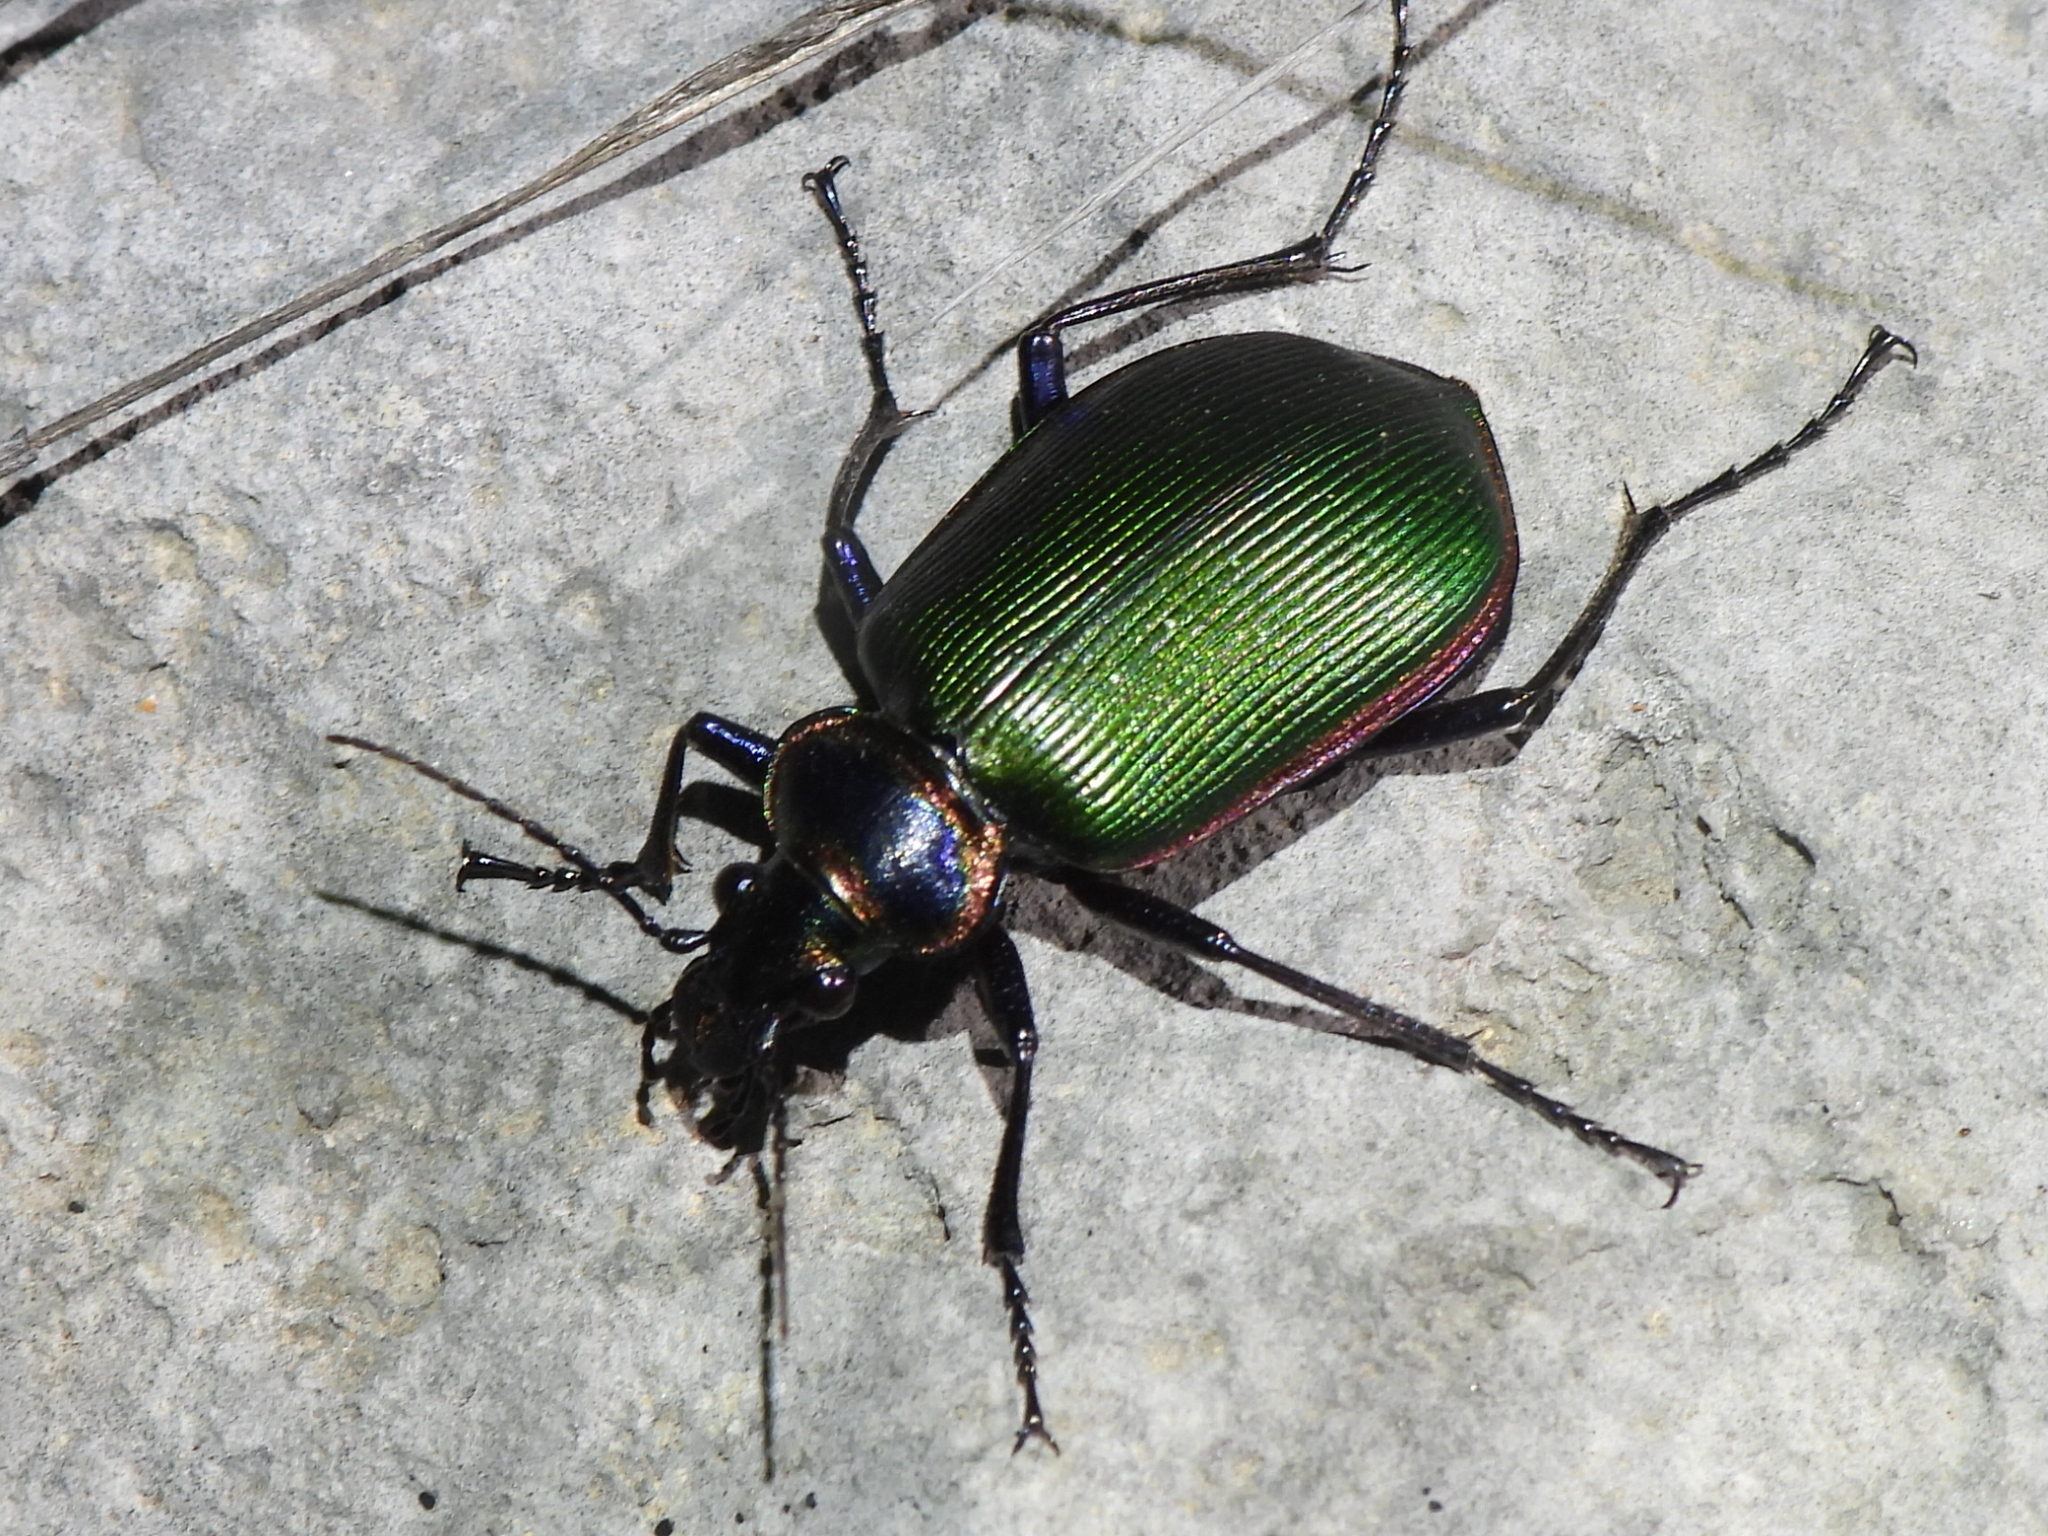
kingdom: Animalia
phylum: Arthropoda
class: Insecta
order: Coleoptera
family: Carabidae
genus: Calosoma
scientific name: Calosoma scrutator
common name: Fiery searcher beetle
